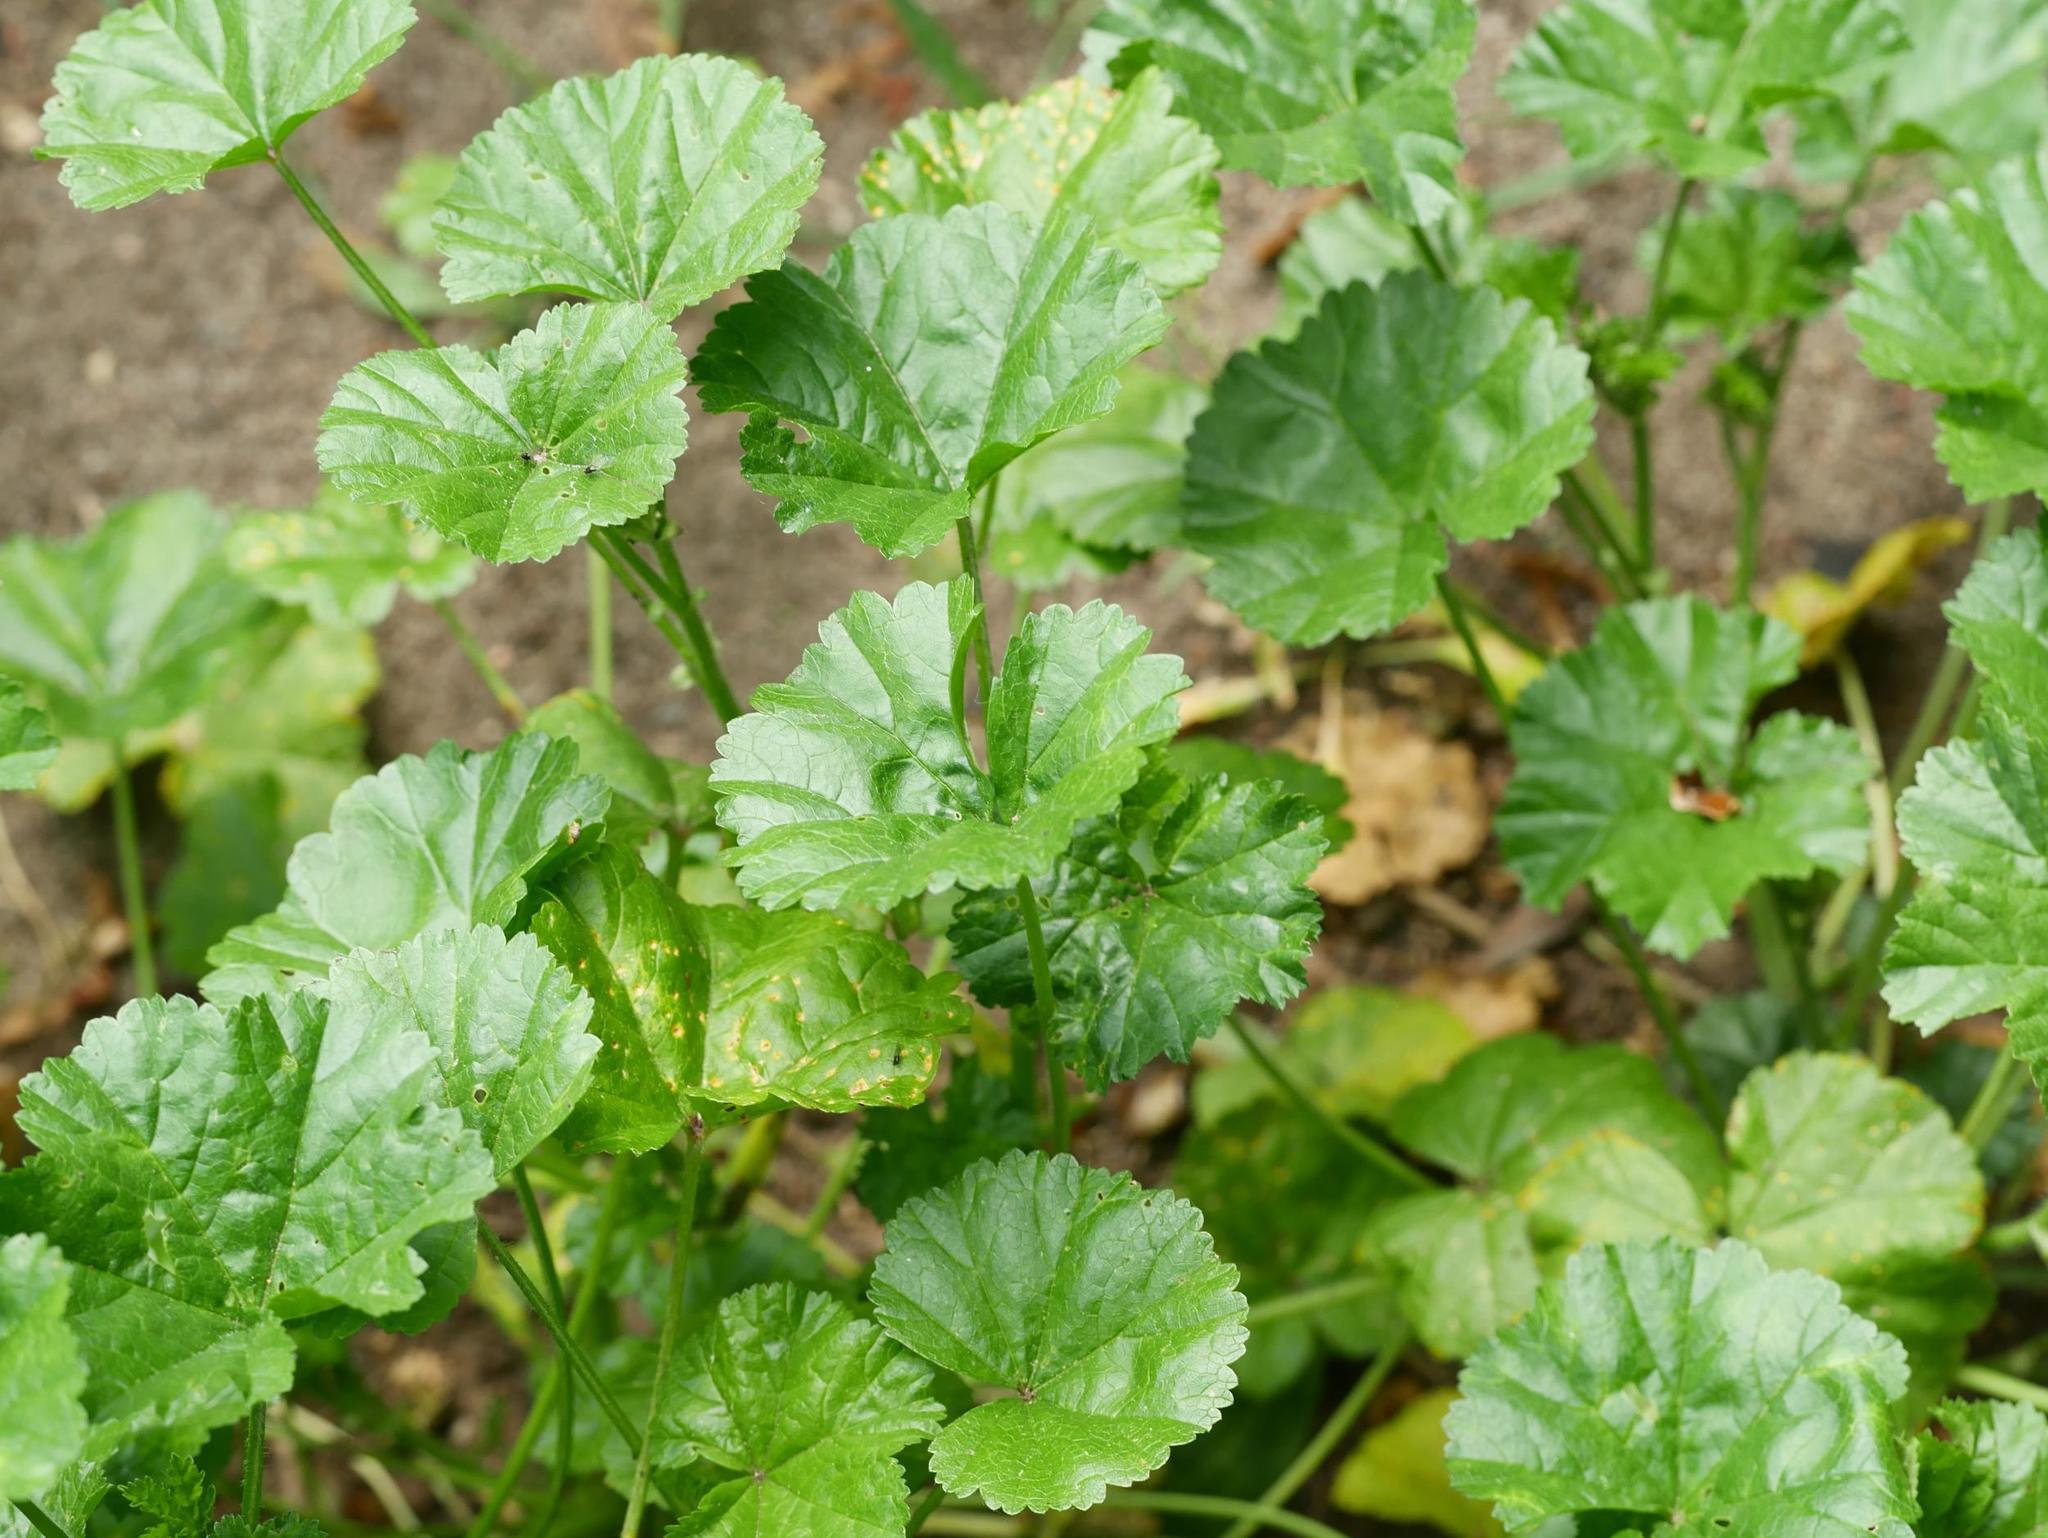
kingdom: Plantae
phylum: Tracheophyta
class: Magnoliopsida
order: Malvales
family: Malvaceae
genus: Malva
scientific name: Malva sylvestris
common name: Common mallow
